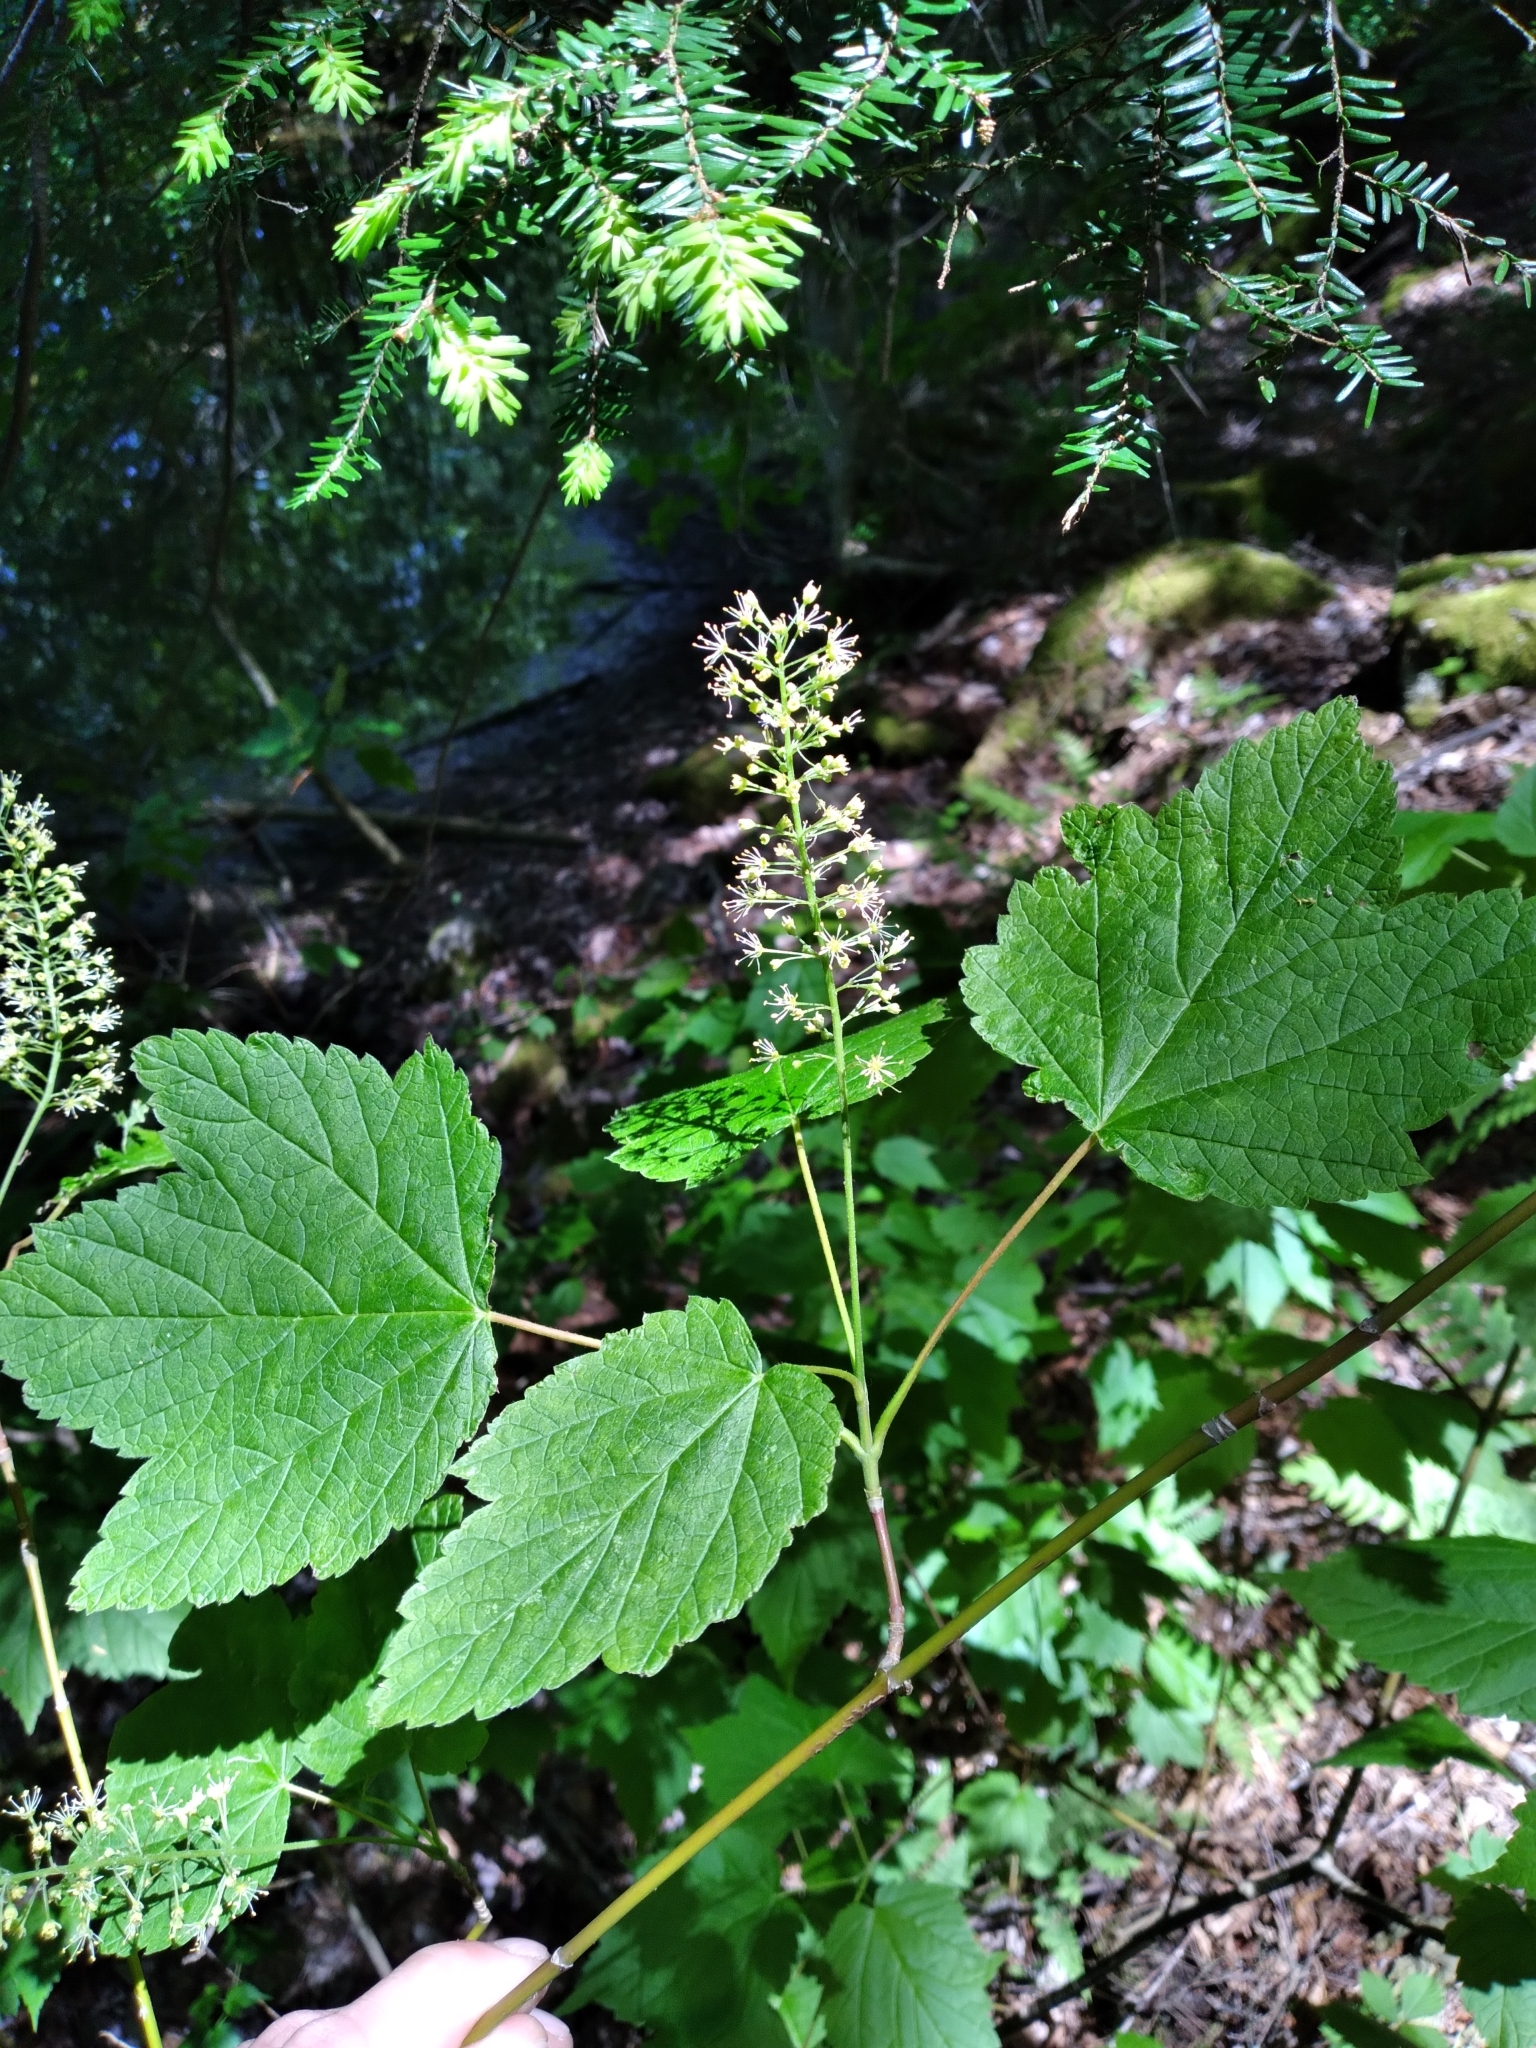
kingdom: Plantae
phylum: Tracheophyta
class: Magnoliopsida
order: Sapindales
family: Sapindaceae
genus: Acer
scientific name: Acer spicatum
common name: Mountain maple
